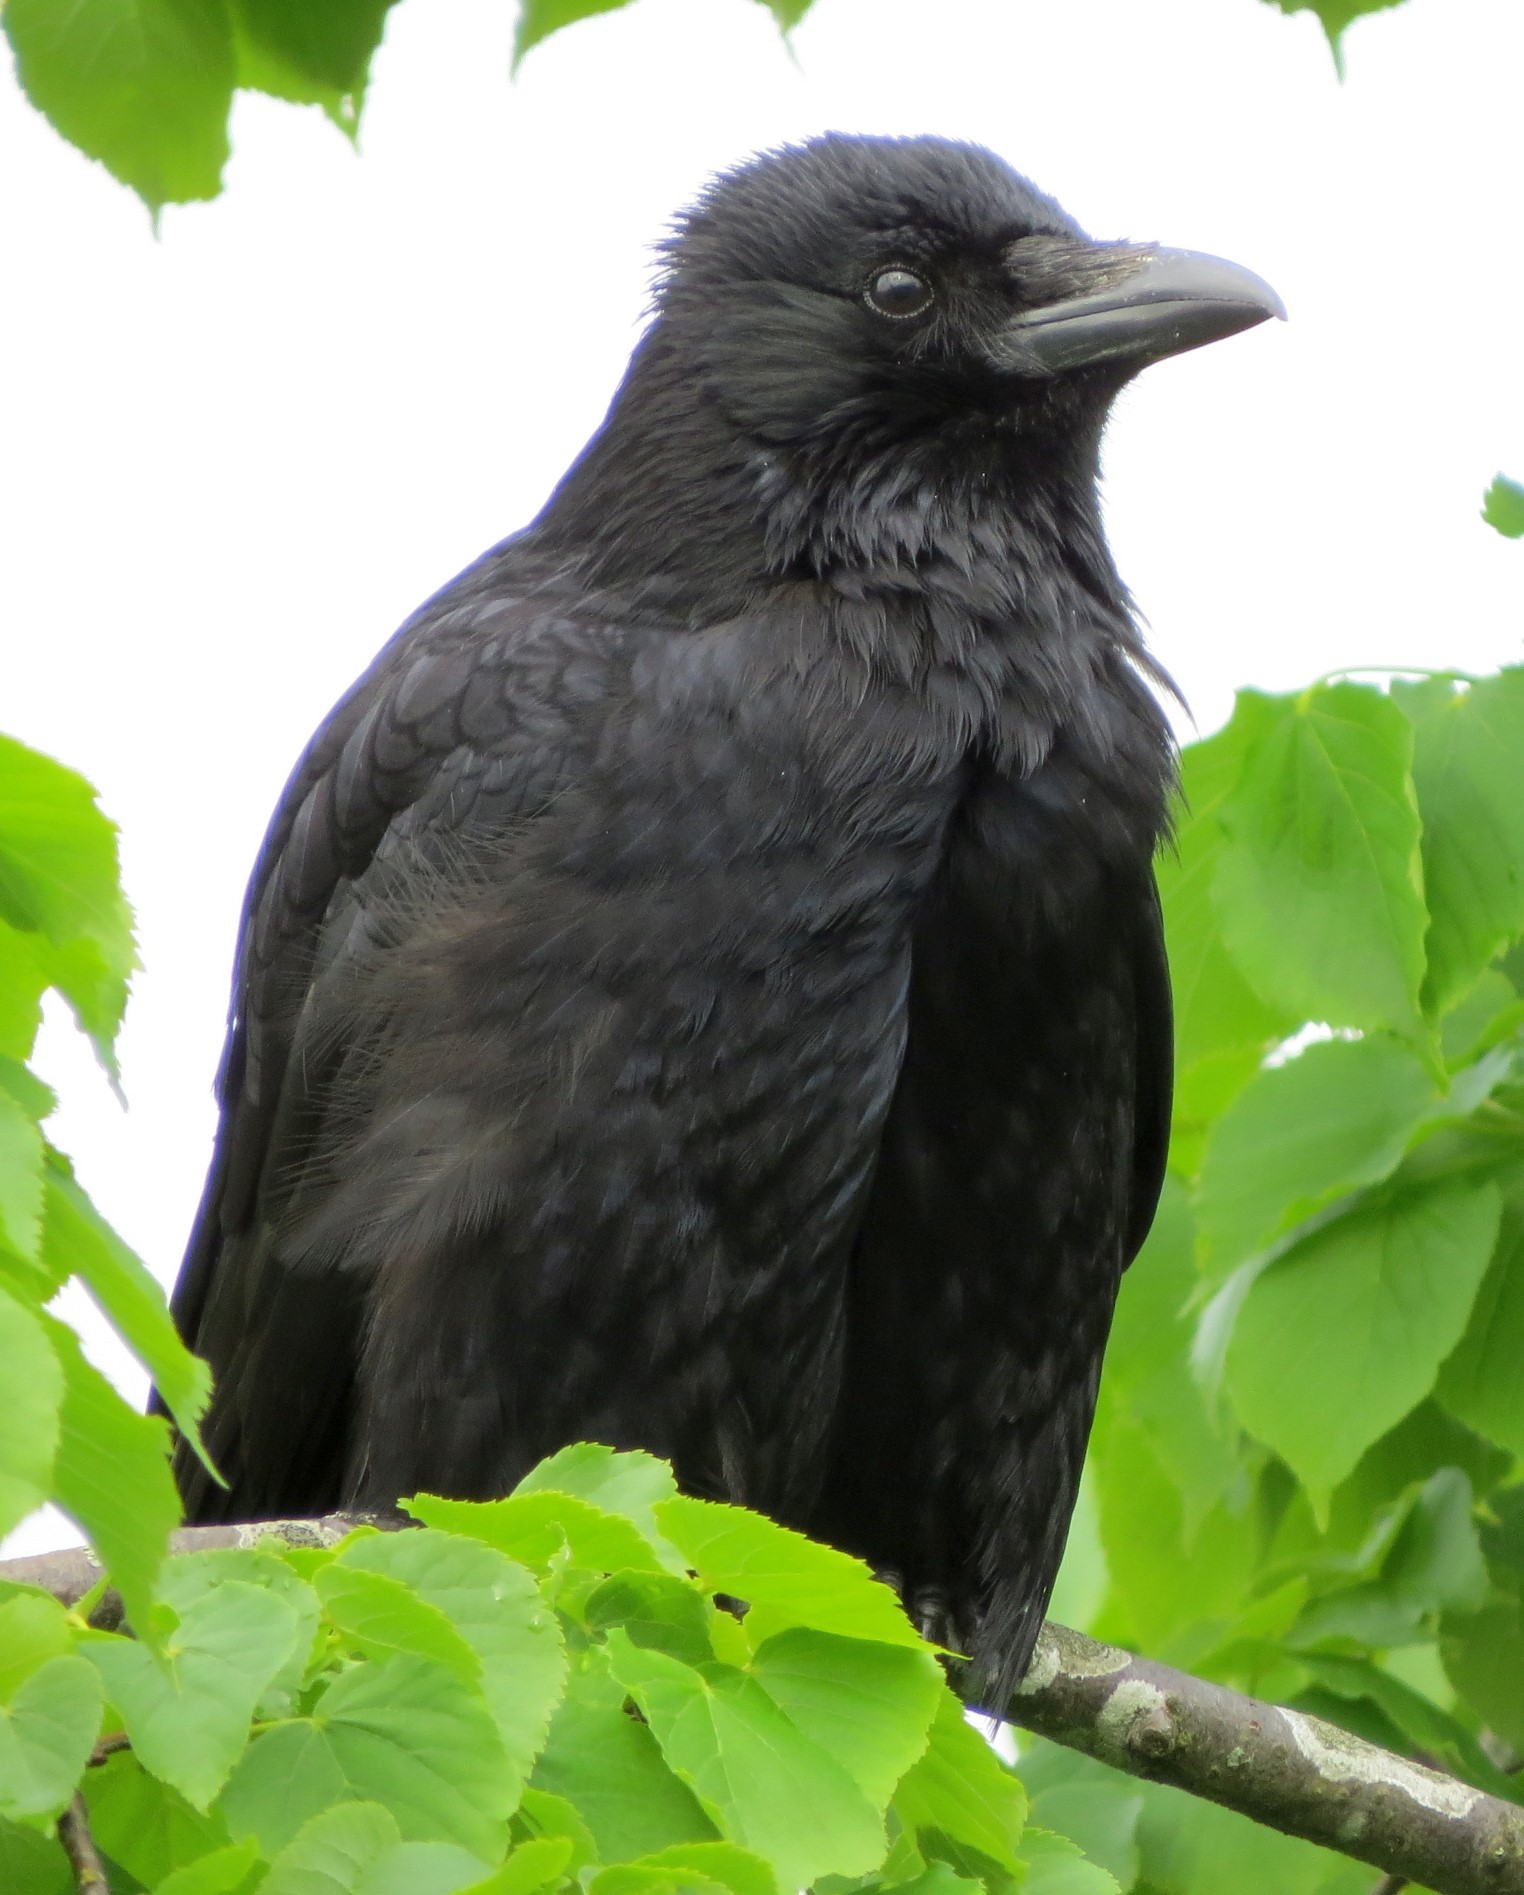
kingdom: Animalia
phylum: Chordata
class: Aves
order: Passeriformes
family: Corvidae
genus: Corvus
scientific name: Corvus corone
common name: Carrion crow
